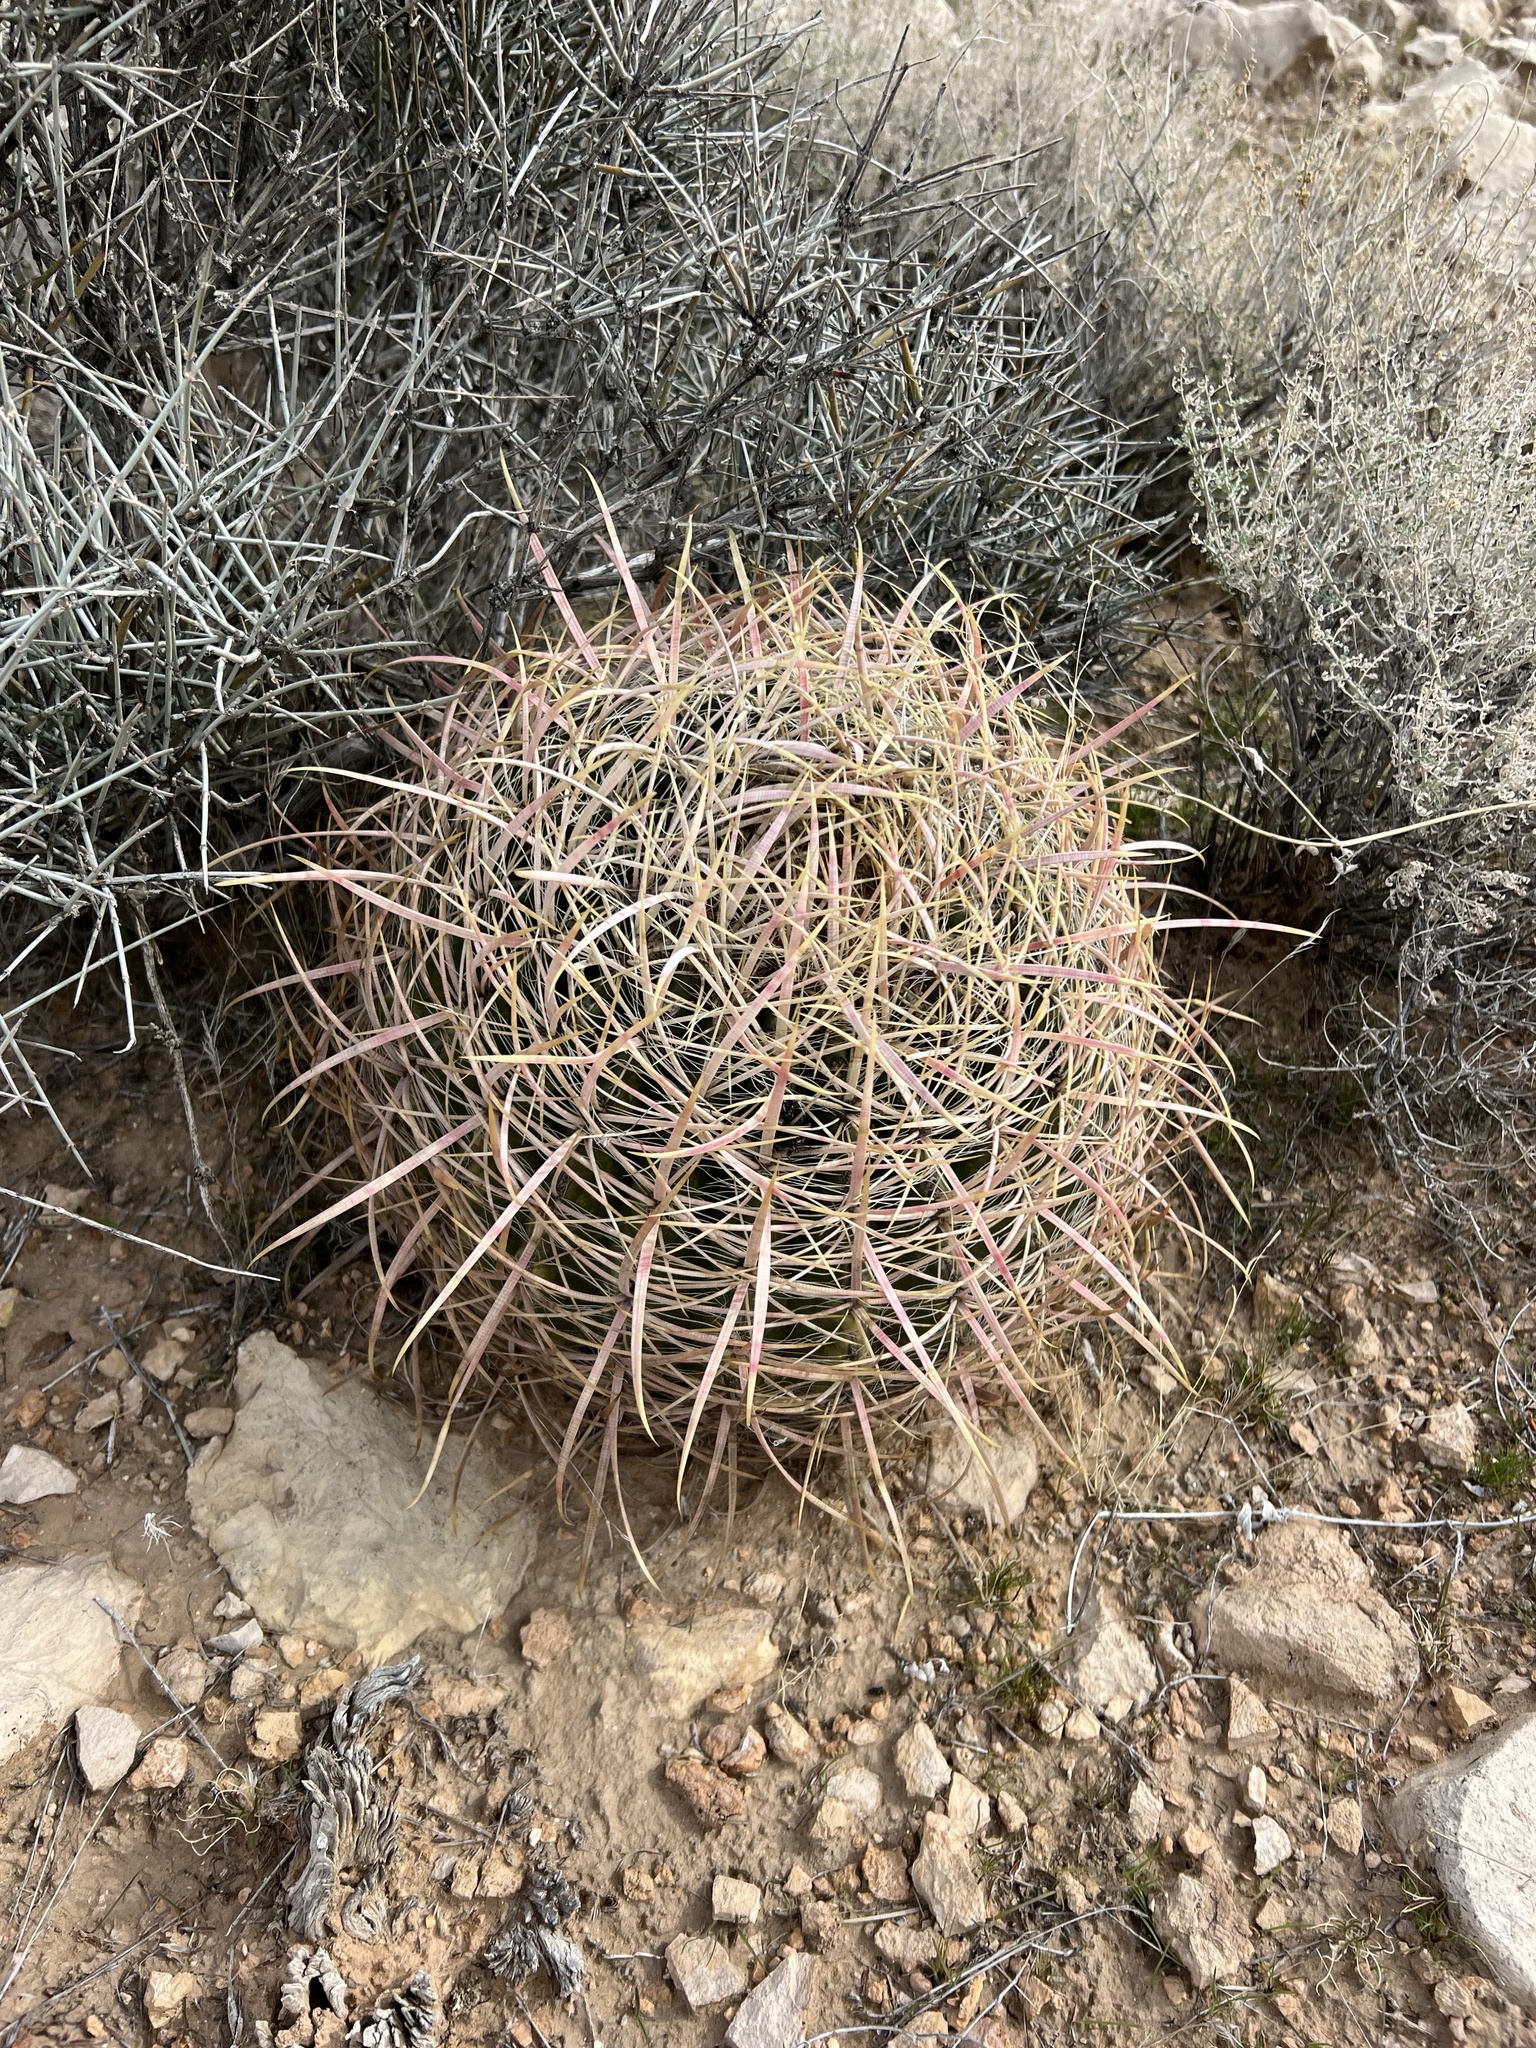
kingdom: Plantae
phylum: Tracheophyta
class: Magnoliopsida
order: Caryophyllales
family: Cactaceae
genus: Ferocactus
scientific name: Ferocactus cylindraceus
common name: California barrel cactus
